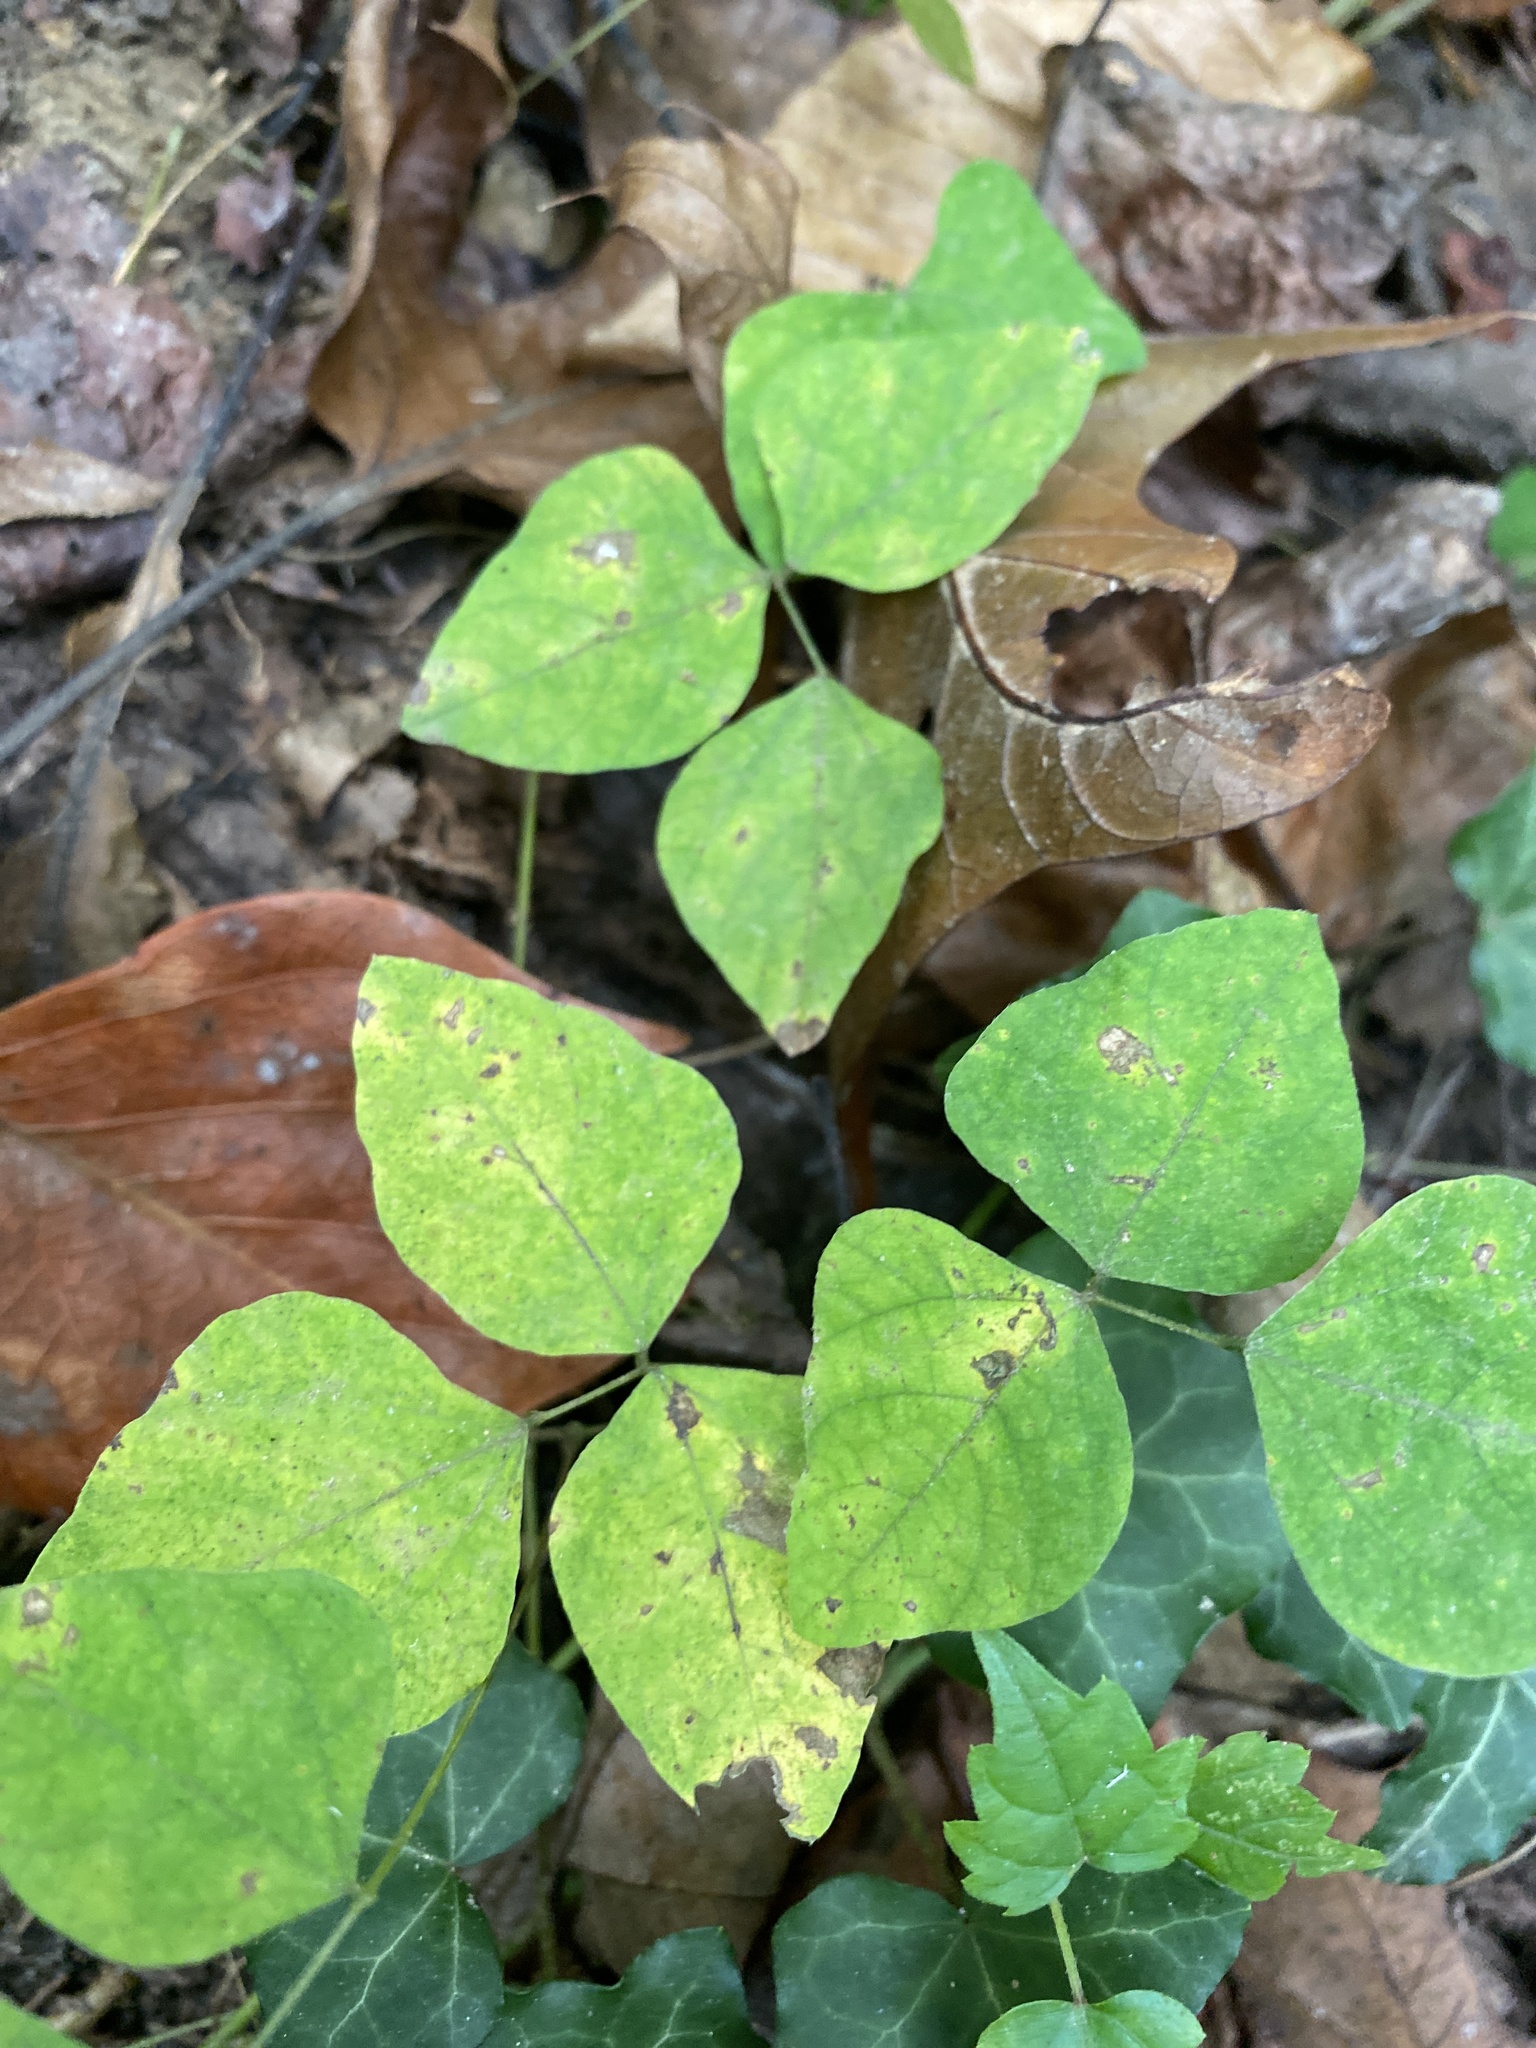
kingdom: Plantae
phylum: Tracheophyta
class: Magnoliopsida
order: Fabales
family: Fabaceae
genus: Amphicarpaea
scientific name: Amphicarpaea bracteata
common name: American hog peanut
